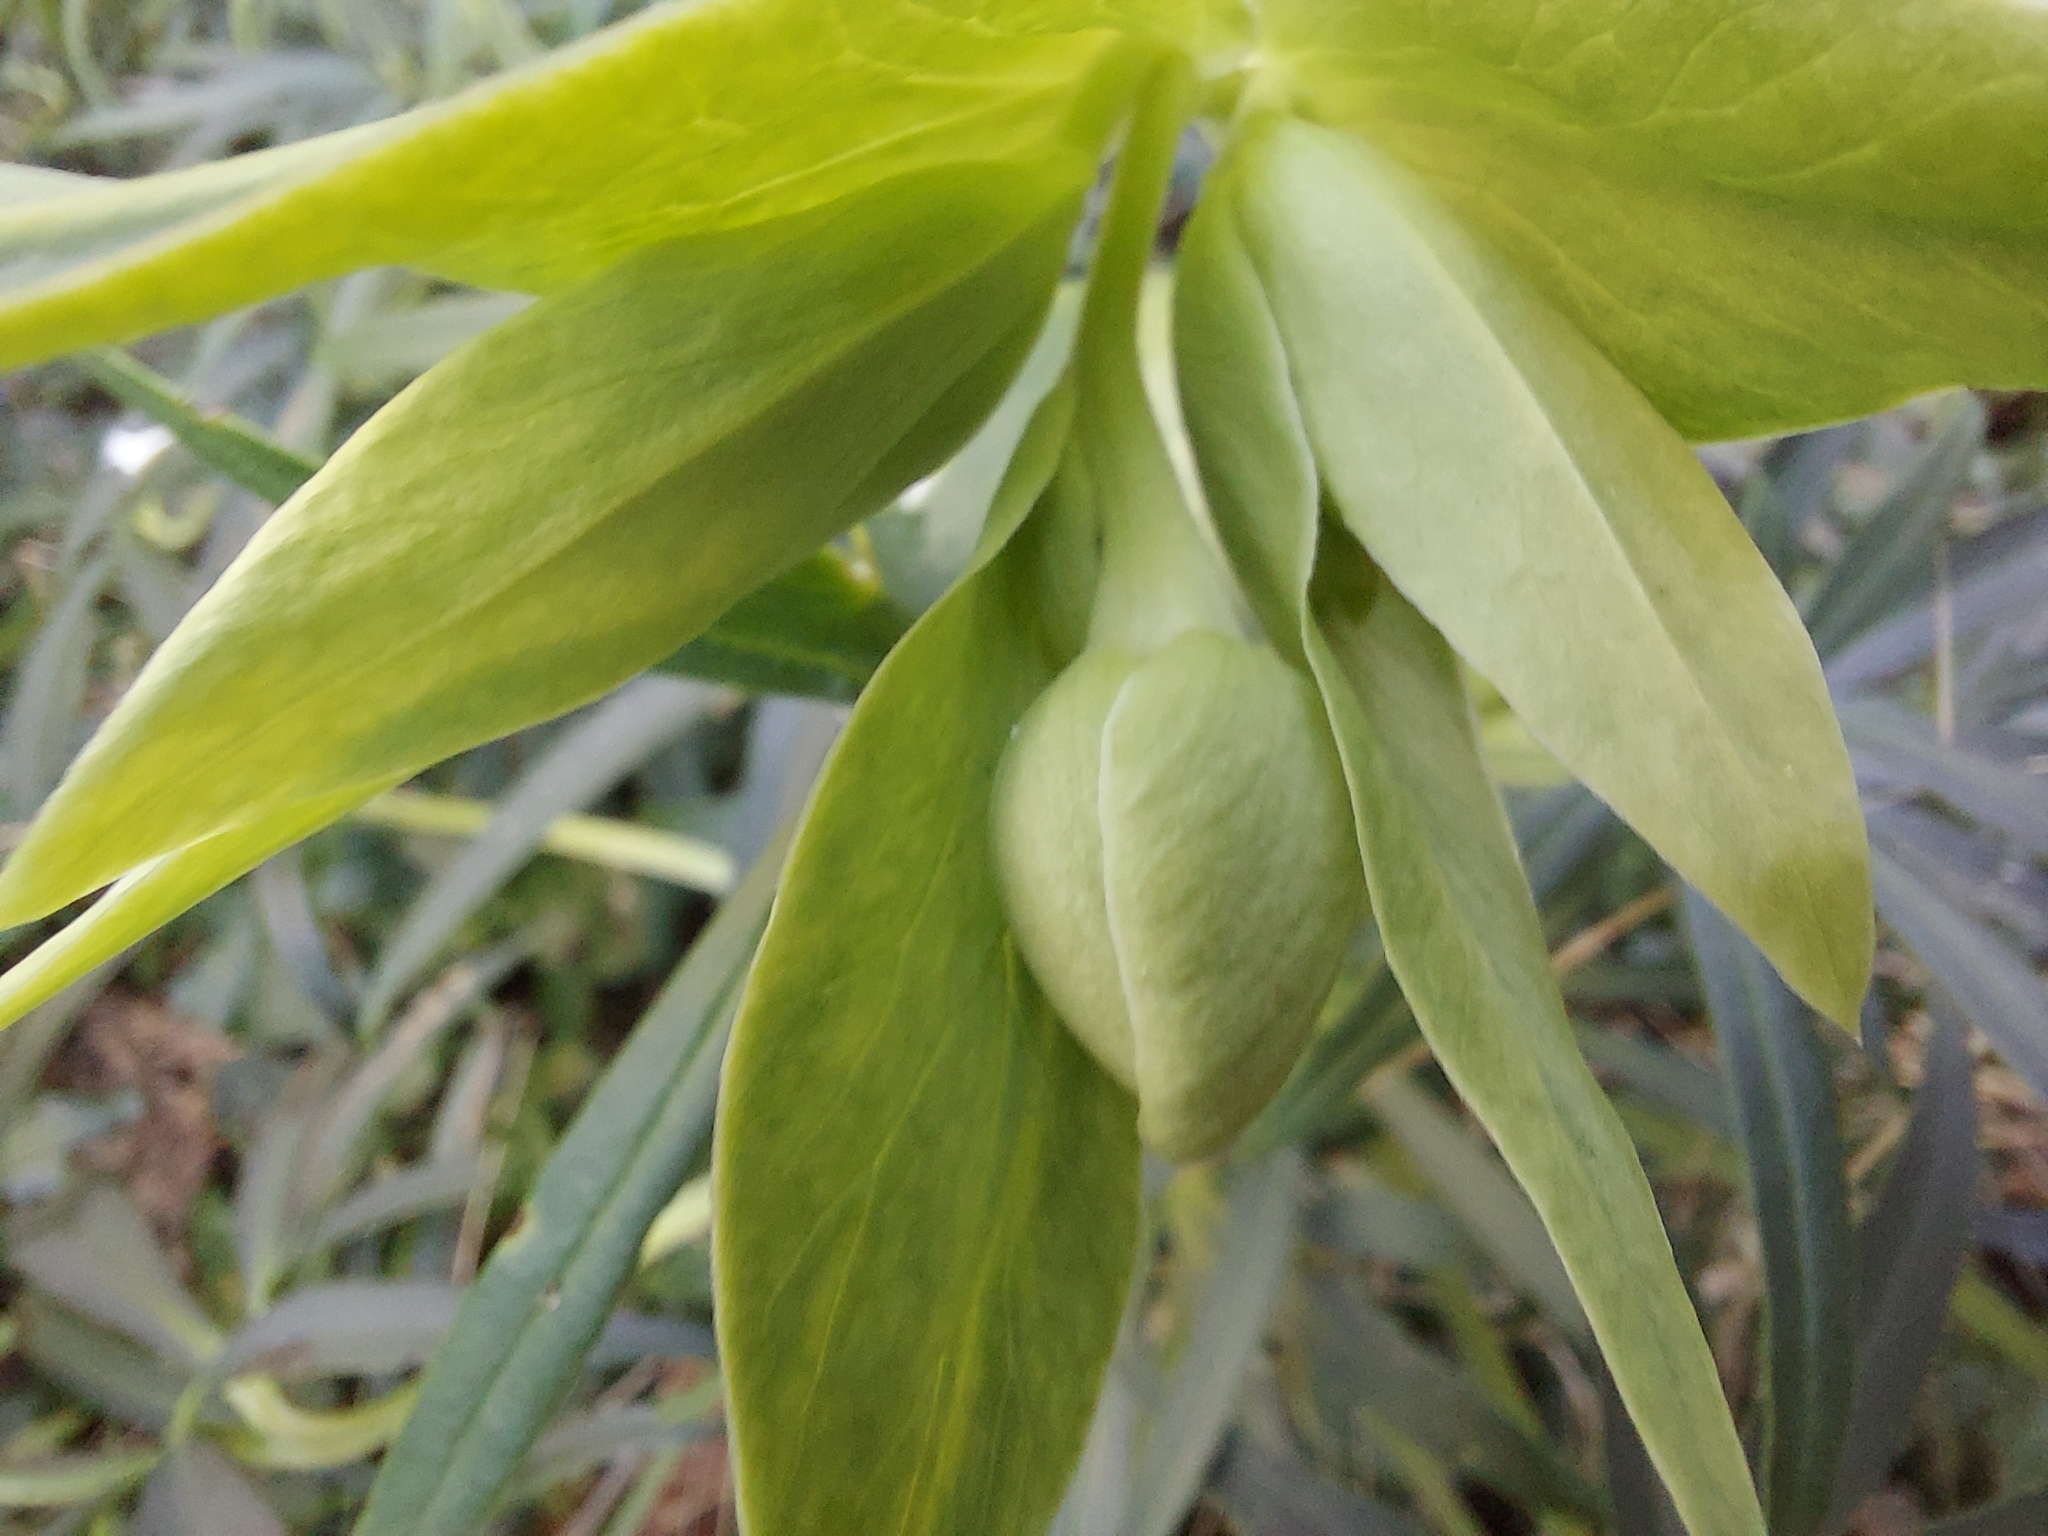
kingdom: Plantae
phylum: Tracheophyta
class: Magnoliopsida
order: Ranunculales
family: Ranunculaceae
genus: Helleborus
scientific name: Helleborus foetidus
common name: Stinking hellebore
